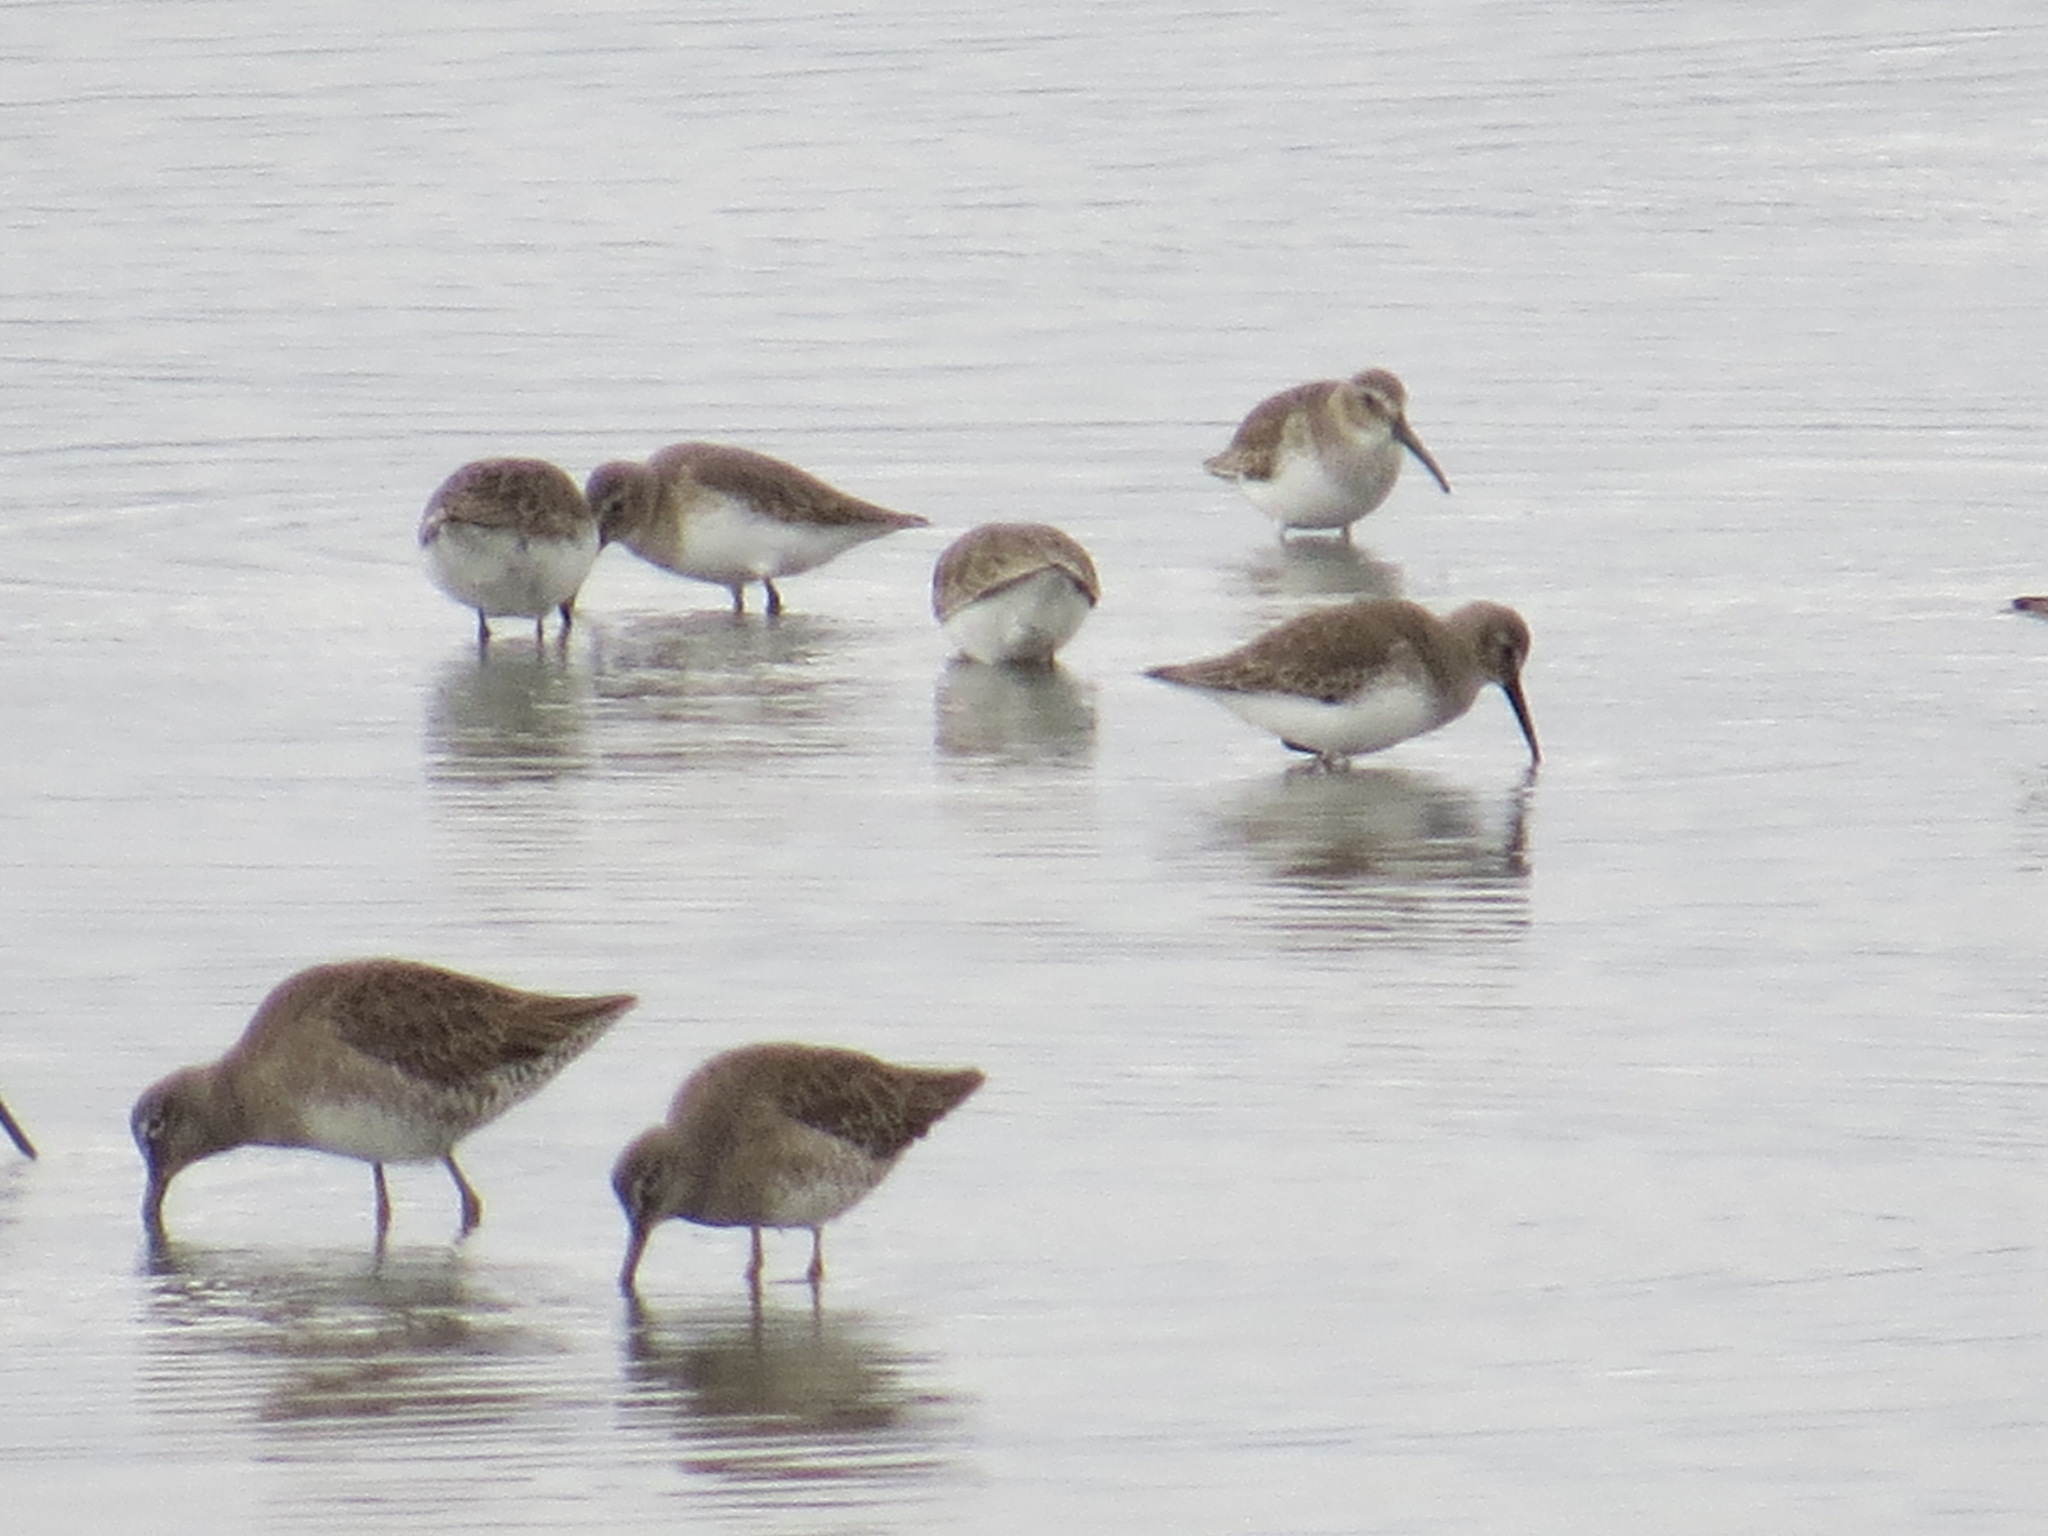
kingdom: Animalia
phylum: Chordata
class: Aves
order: Charadriiformes
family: Scolopacidae
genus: Limnodromus
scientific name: Limnodromus scolopaceus
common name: Long-billed dowitcher
